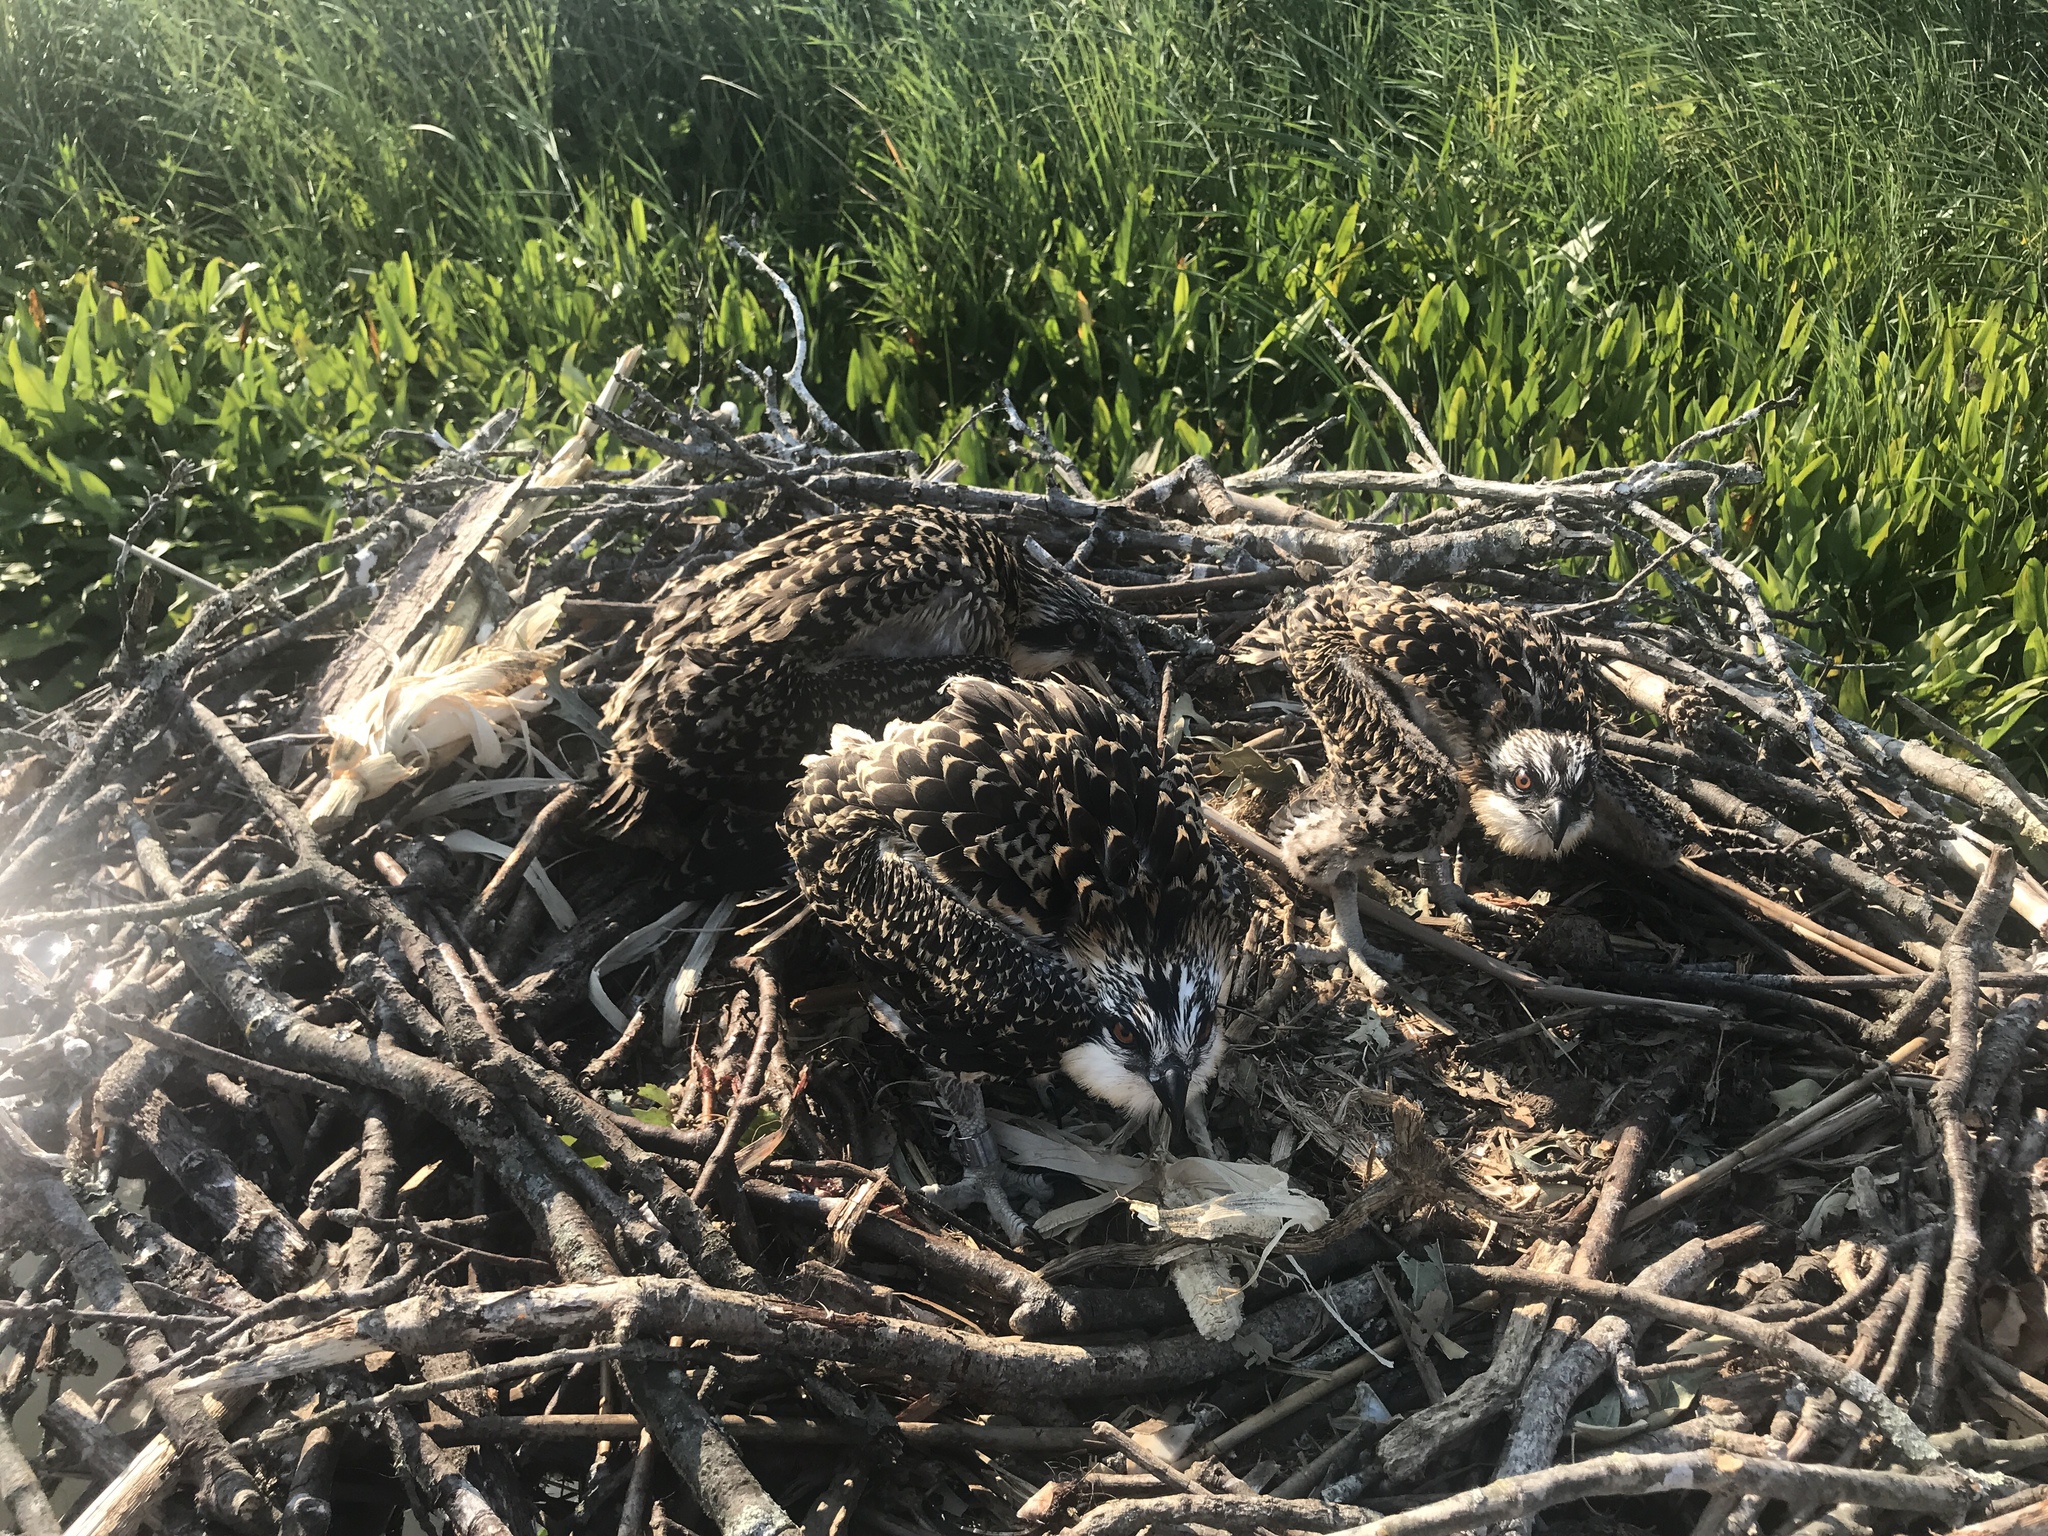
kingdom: Animalia
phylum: Chordata
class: Aves
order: Accipitriformes
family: Pandionidae
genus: Pandion
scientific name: Pandion haliaetus
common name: Osprey
